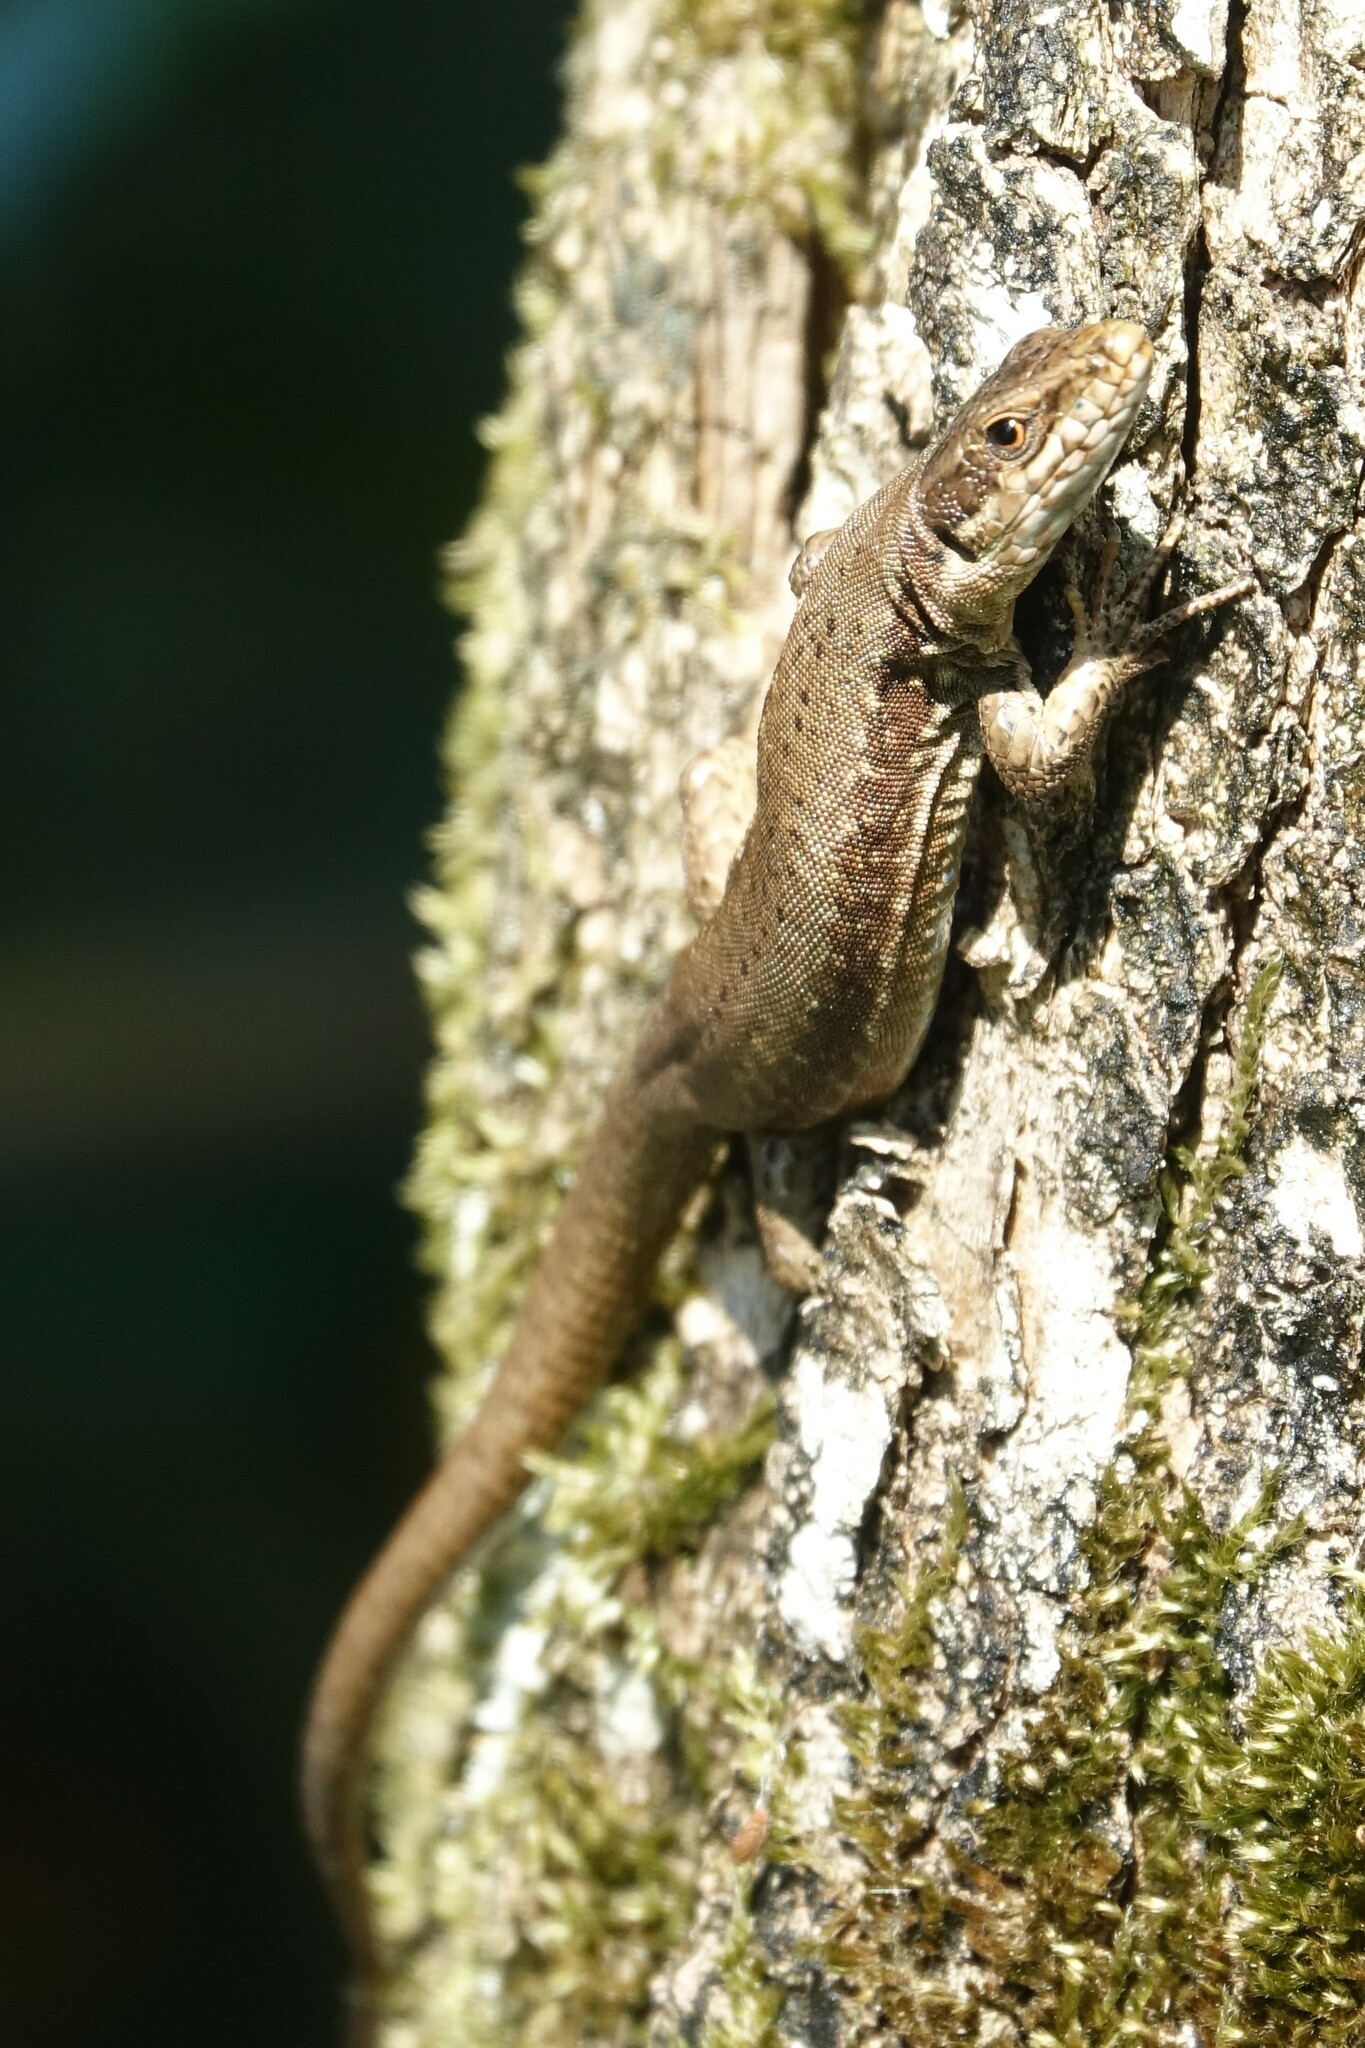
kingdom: Animalia
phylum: Chordata
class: Squamata
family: Lacertidae
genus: Podarcis
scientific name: Podarcis muralis
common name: Common wall lizard
